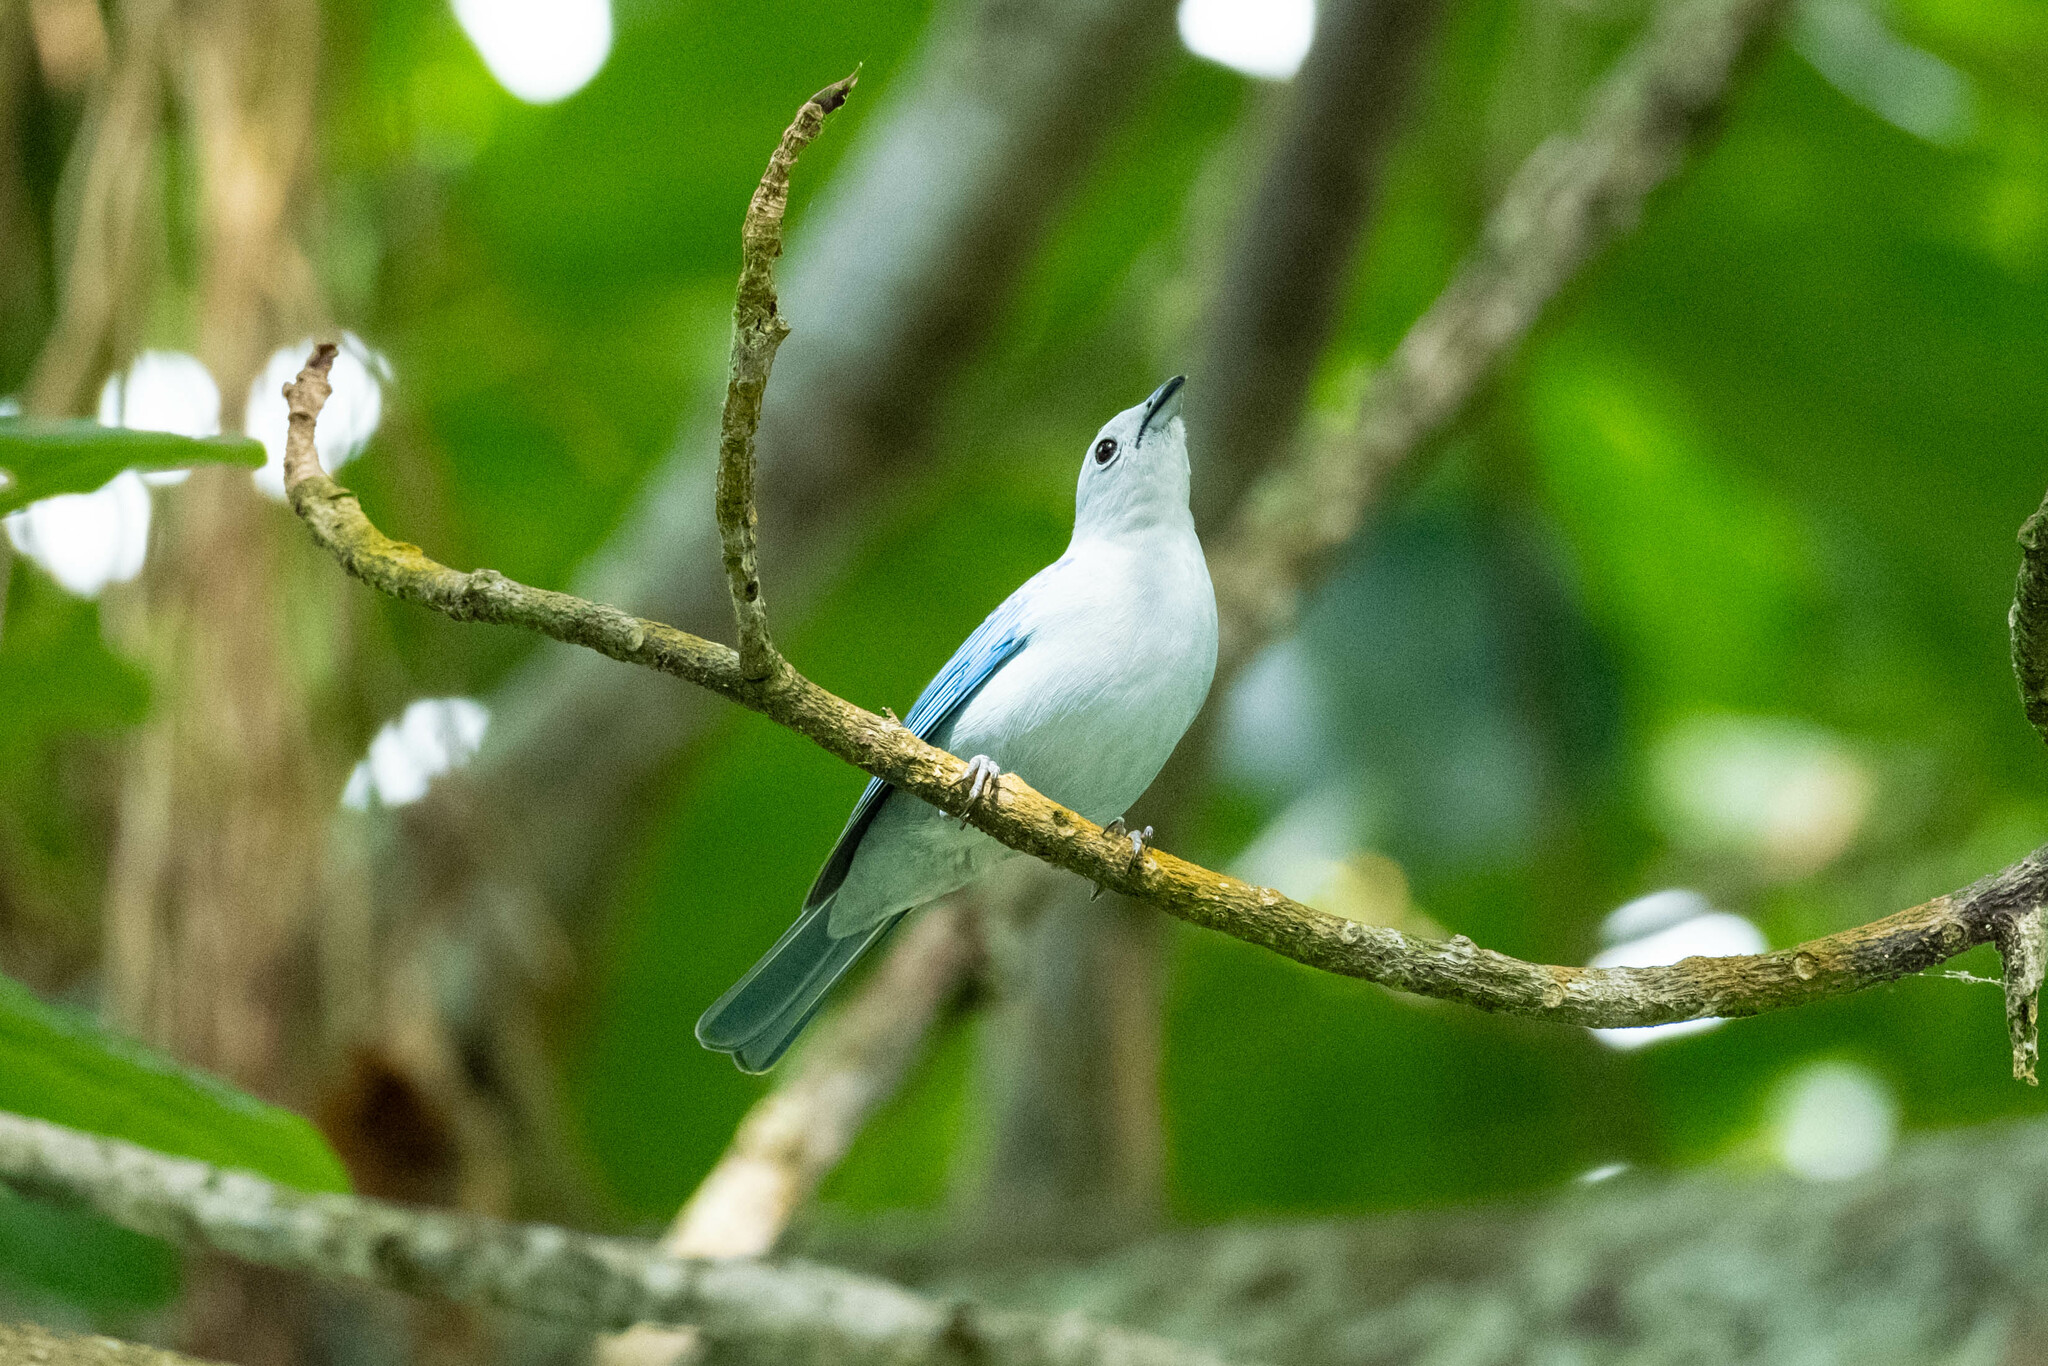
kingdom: Animalia
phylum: Chordata
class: Aves
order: Passeriformes
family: Thraupidae
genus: Thraupis
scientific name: Thraupis episcopus
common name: Blue-grey tanager
